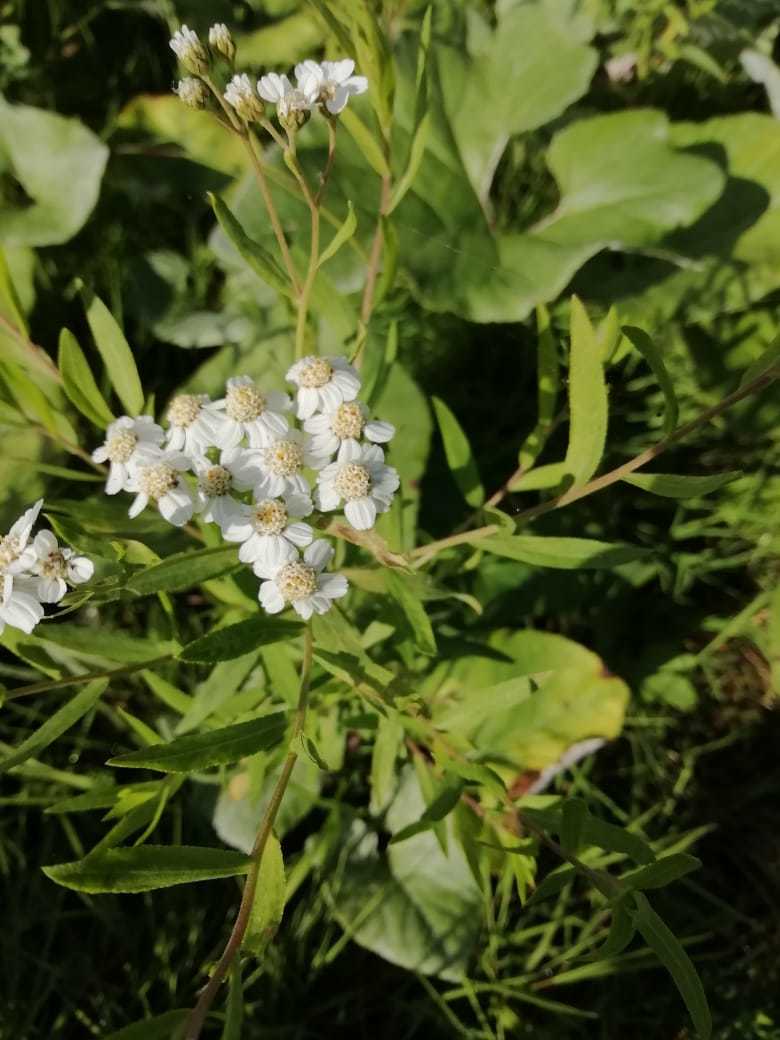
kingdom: Plantae
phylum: Tracheophyta
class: Magnoliopsida
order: Asterales
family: Asteraceae
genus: Achillea
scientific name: Achillea salicifolia
